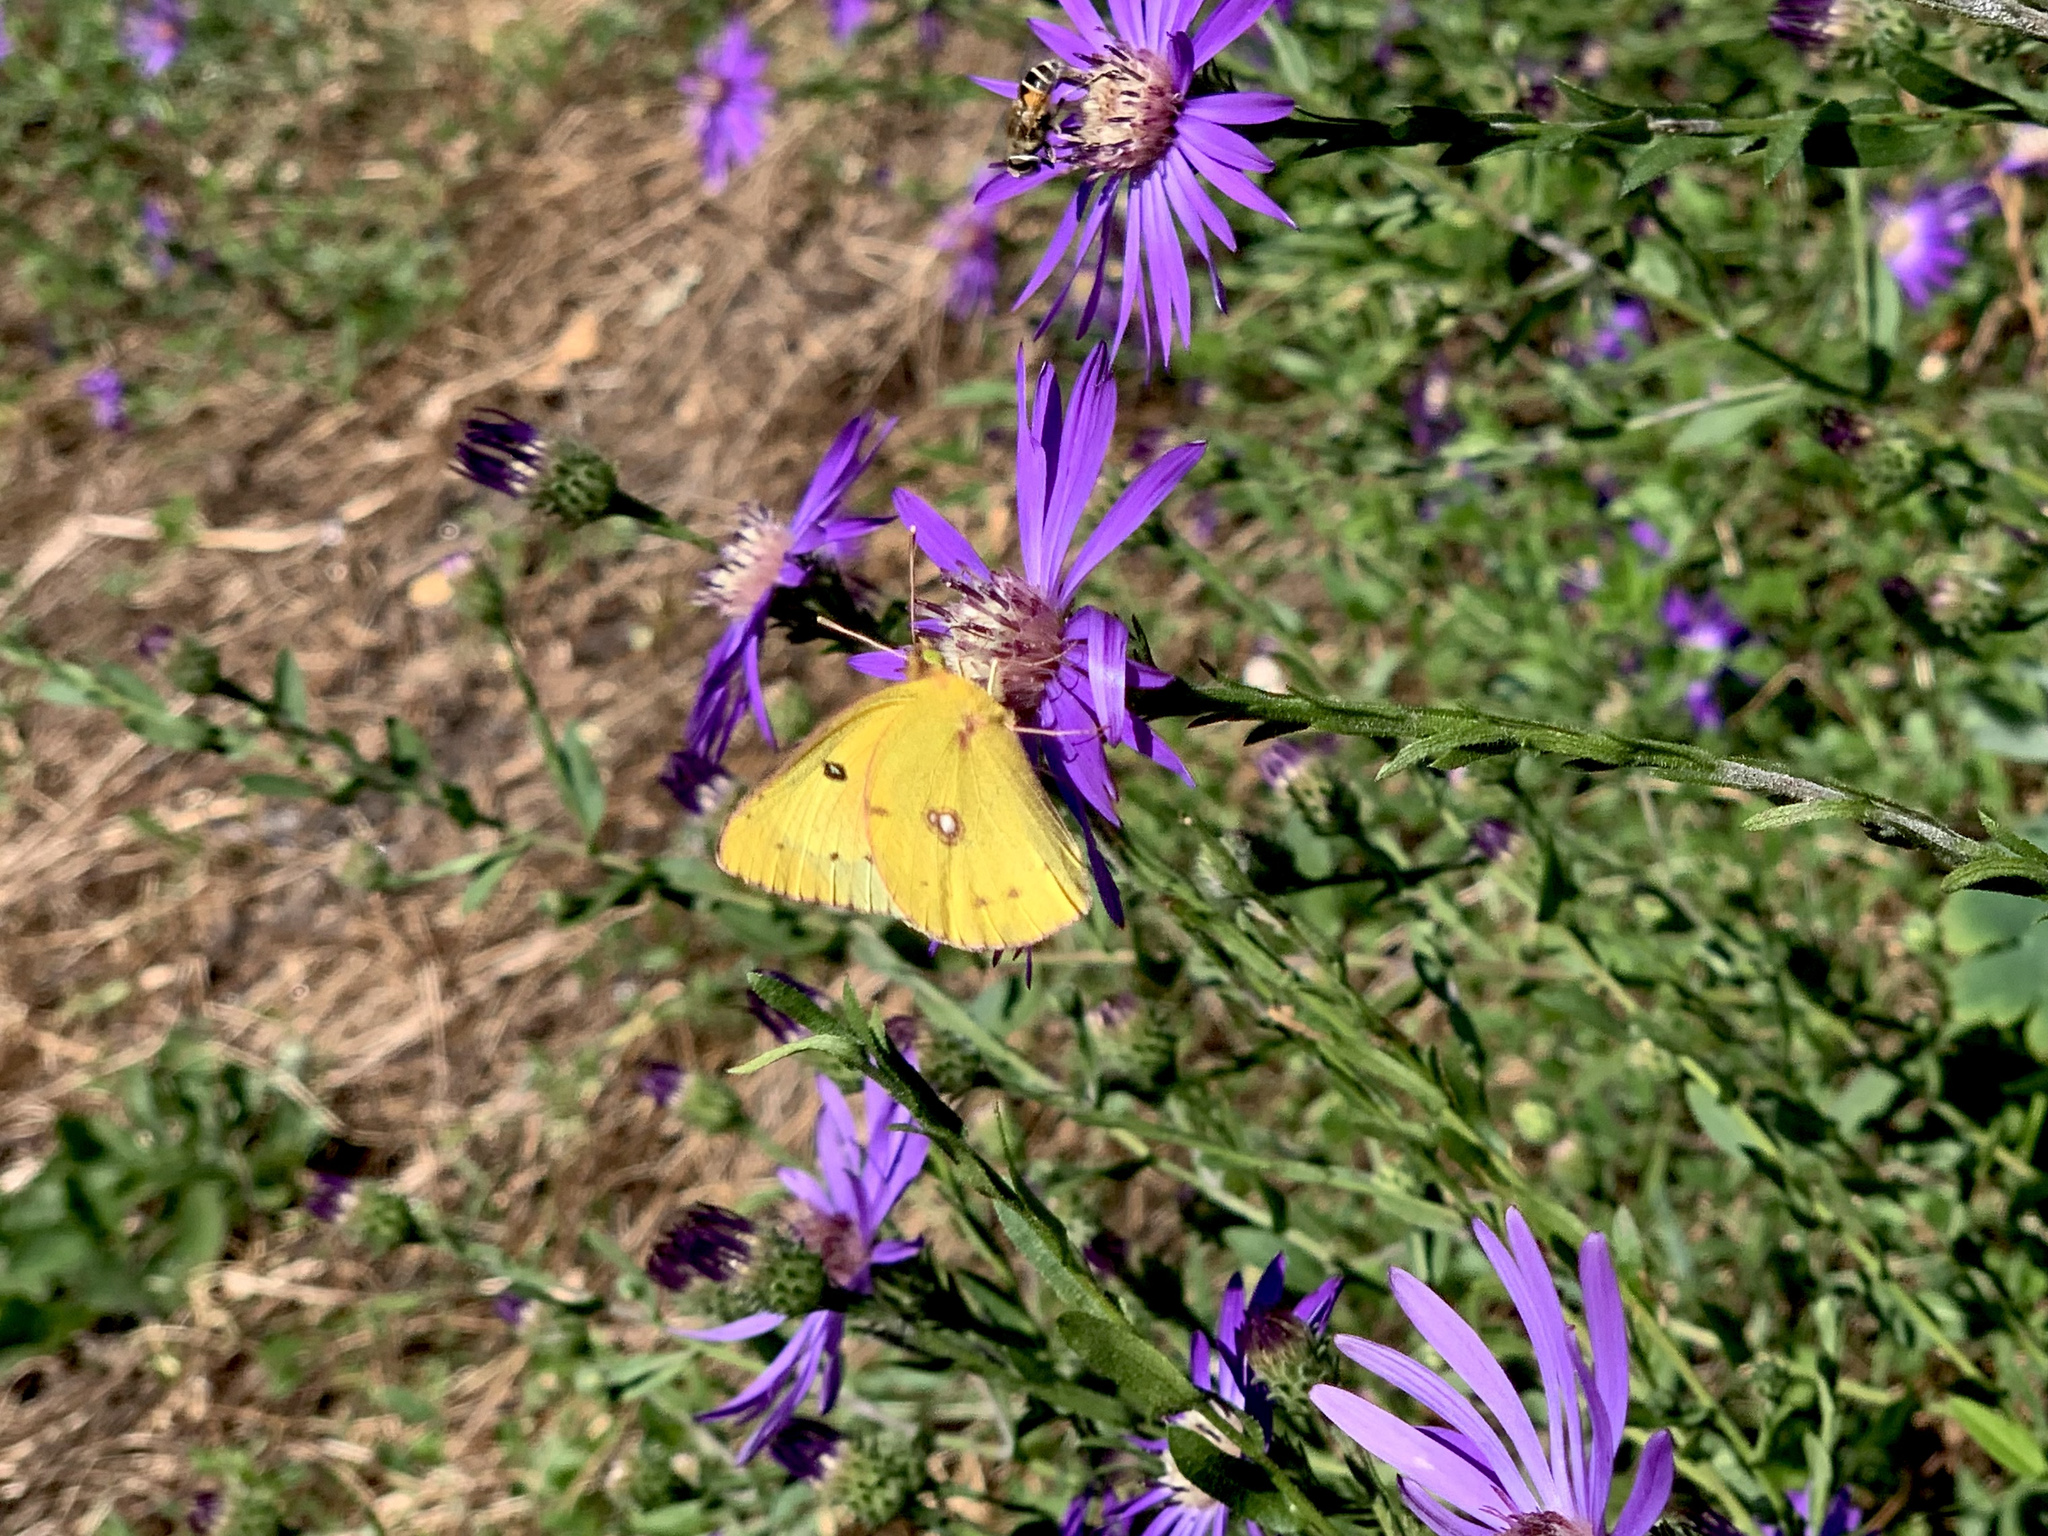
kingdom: Animalia
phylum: Arthropoda
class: Insecta
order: Lepidoptera
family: Pieridae
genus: Colias
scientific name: Colias eurytheme
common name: Alfalfa butterfly
